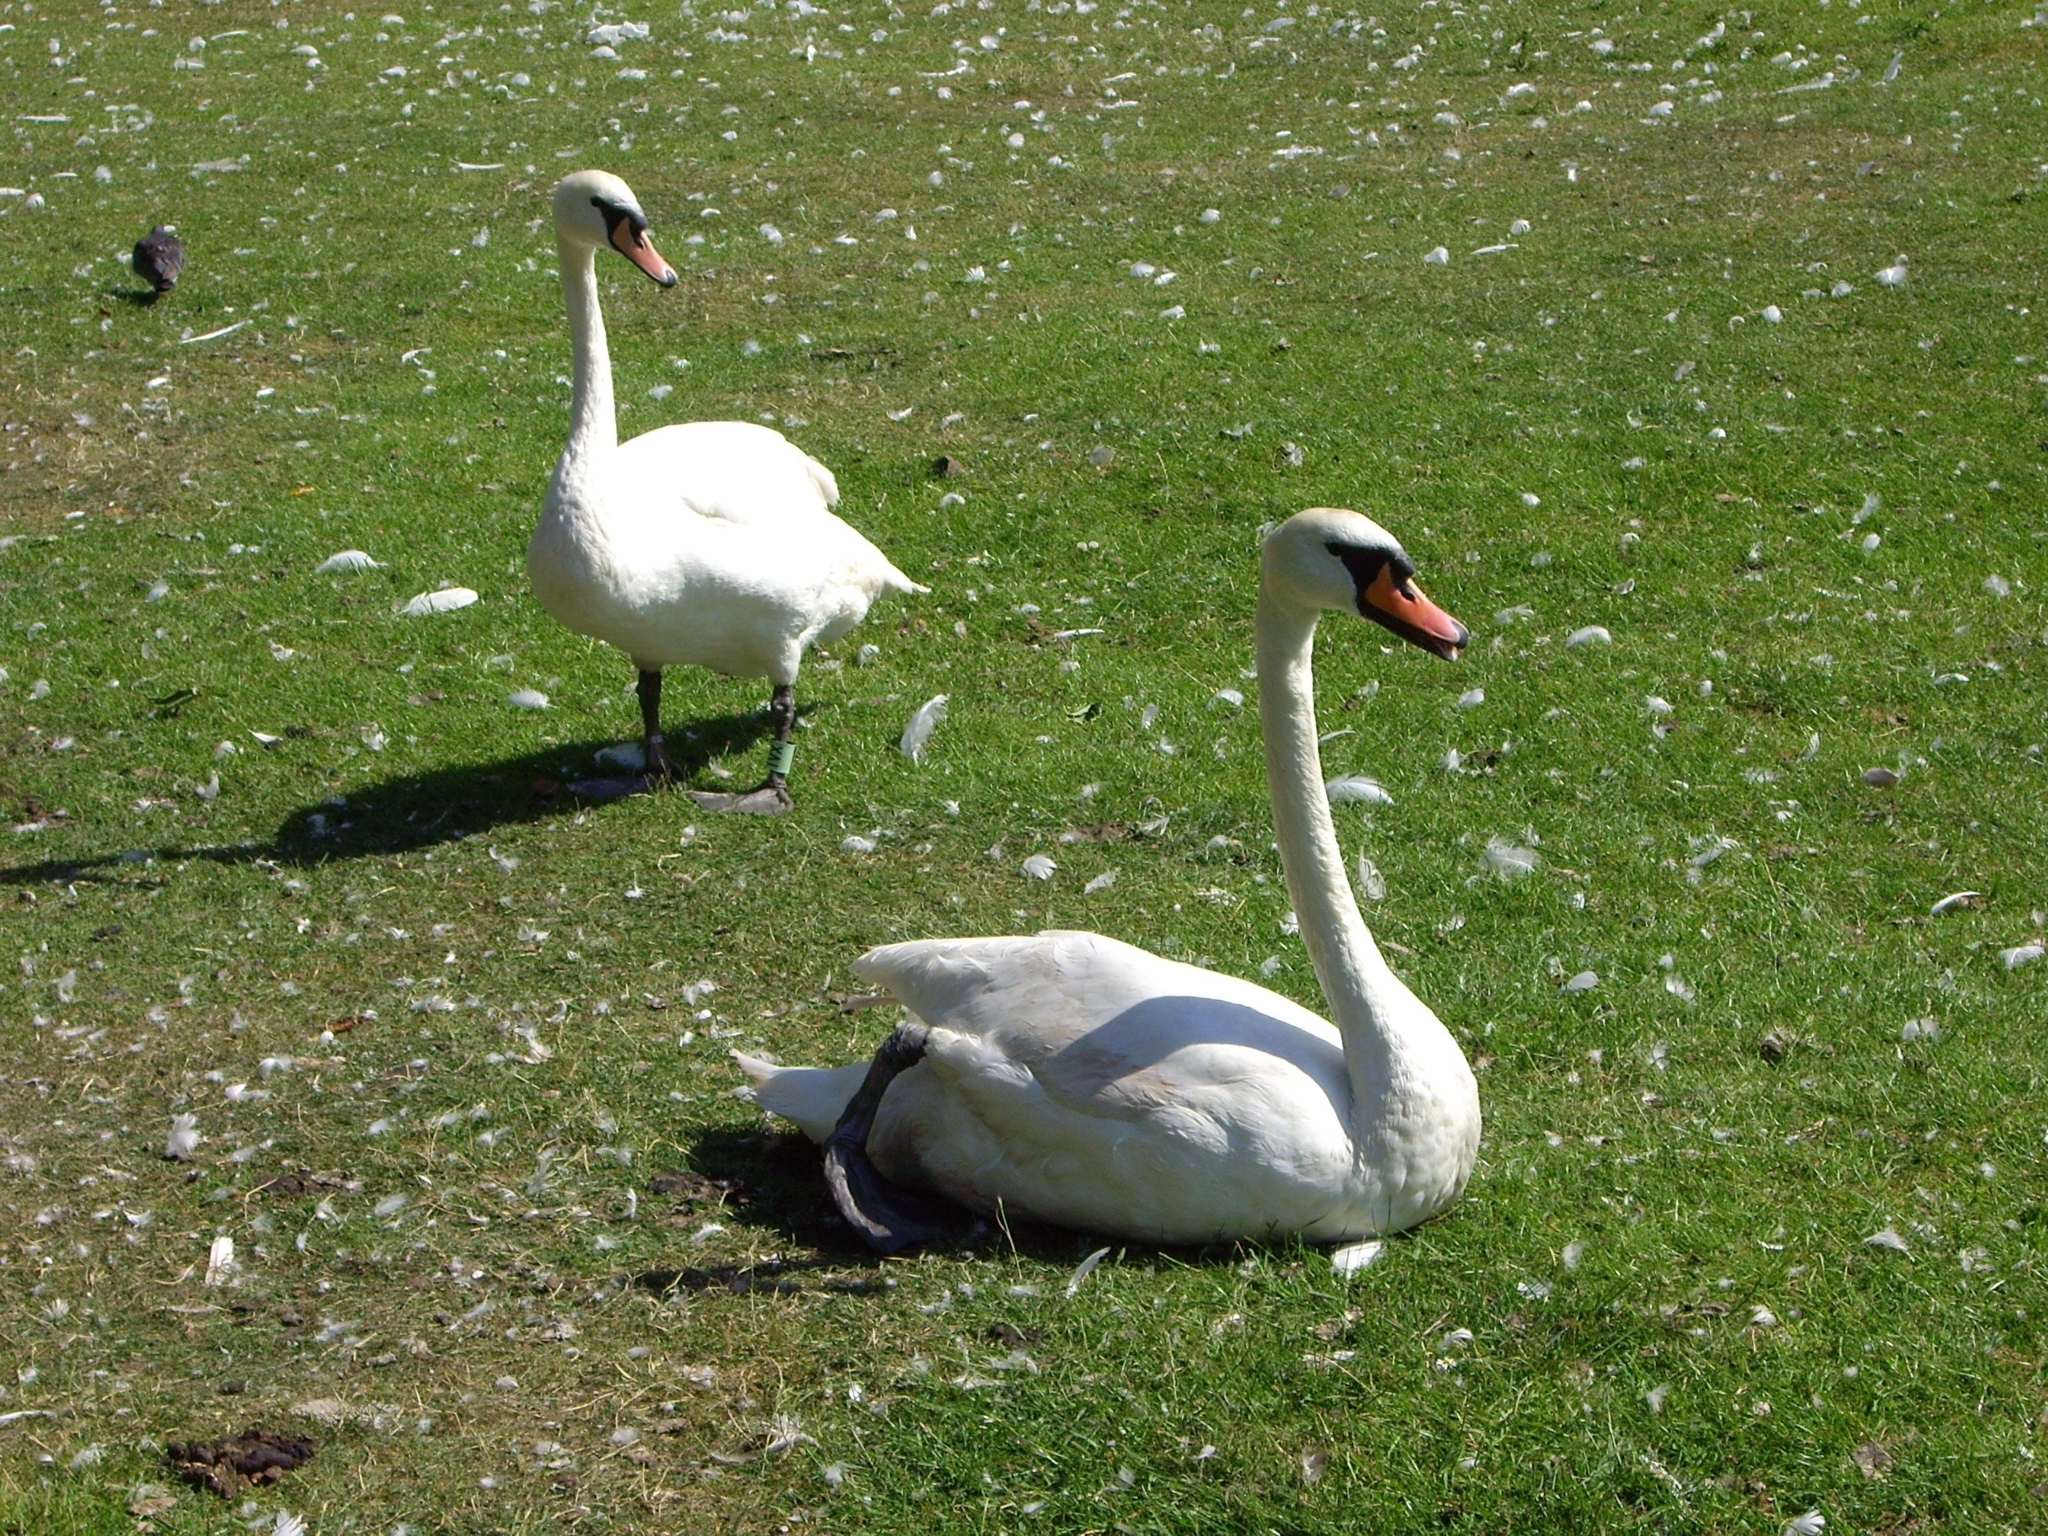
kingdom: Animalia
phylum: Chordata
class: Aves
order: Anseriformes
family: Anatidae
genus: Cygnus
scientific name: Cygnus olor
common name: Mute swan
